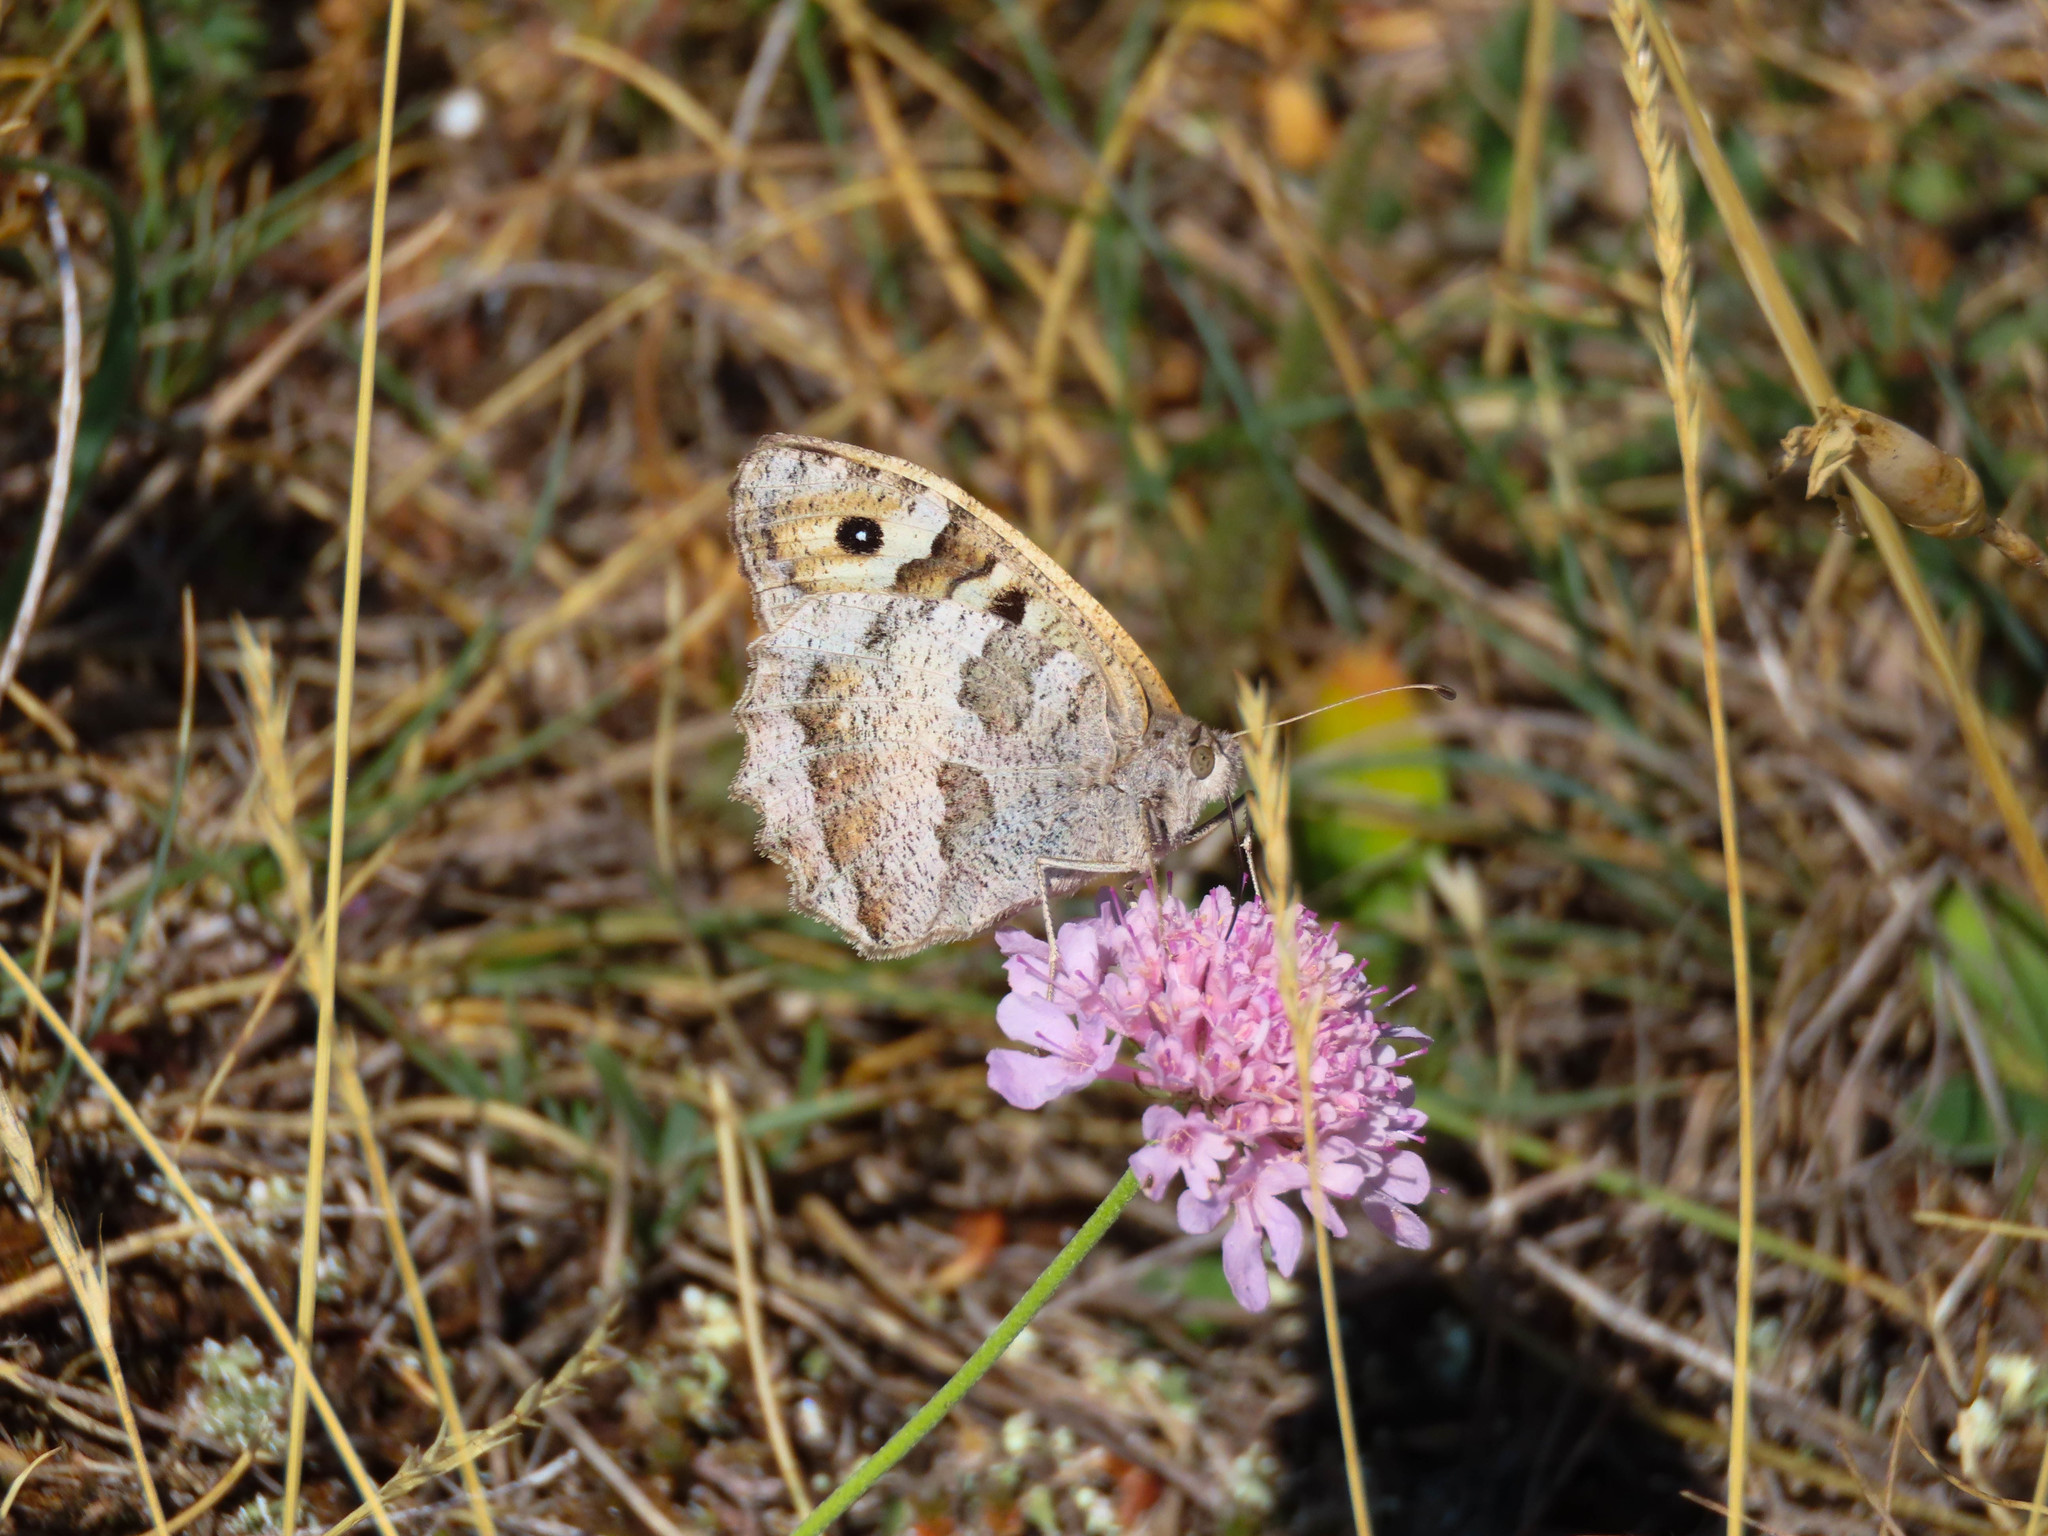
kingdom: Animalia
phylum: Arthropoda
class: Insecta
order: Lepidoptera
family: Nymphalidae
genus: Satyrus
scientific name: Satyrus briseis
